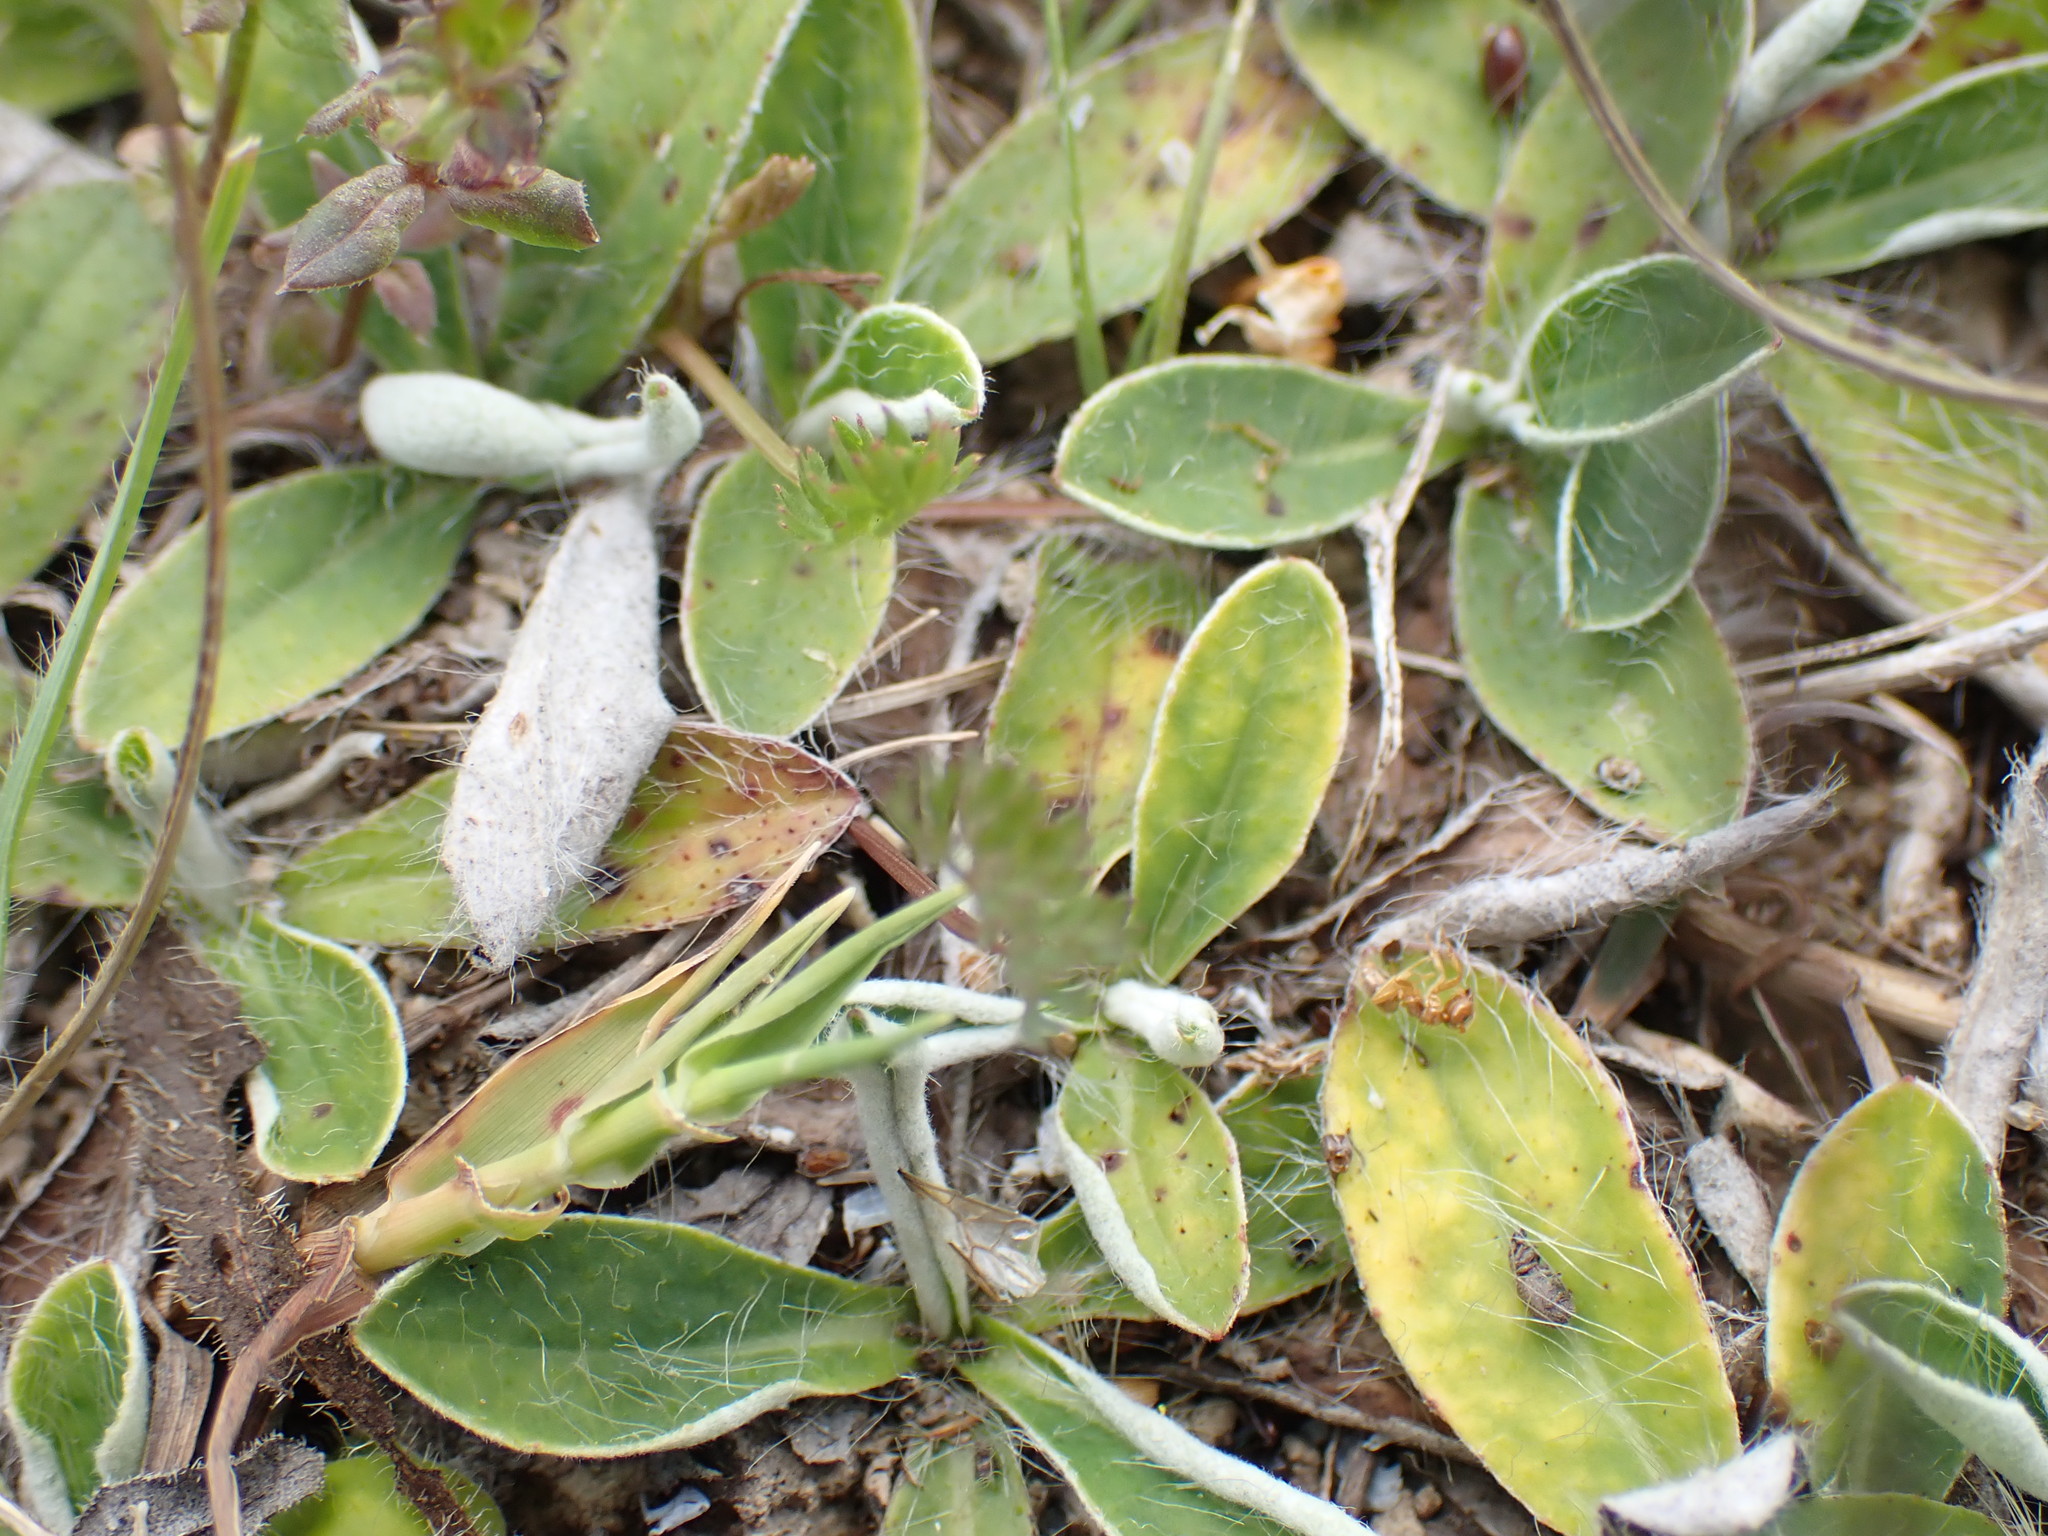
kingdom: Plantae
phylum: Tracheophyta
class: Magnoliopsida
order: Asterales
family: Asteraceae
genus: Pilosella
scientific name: Pilosella officinarum
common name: Mouse-ear hawkweed
